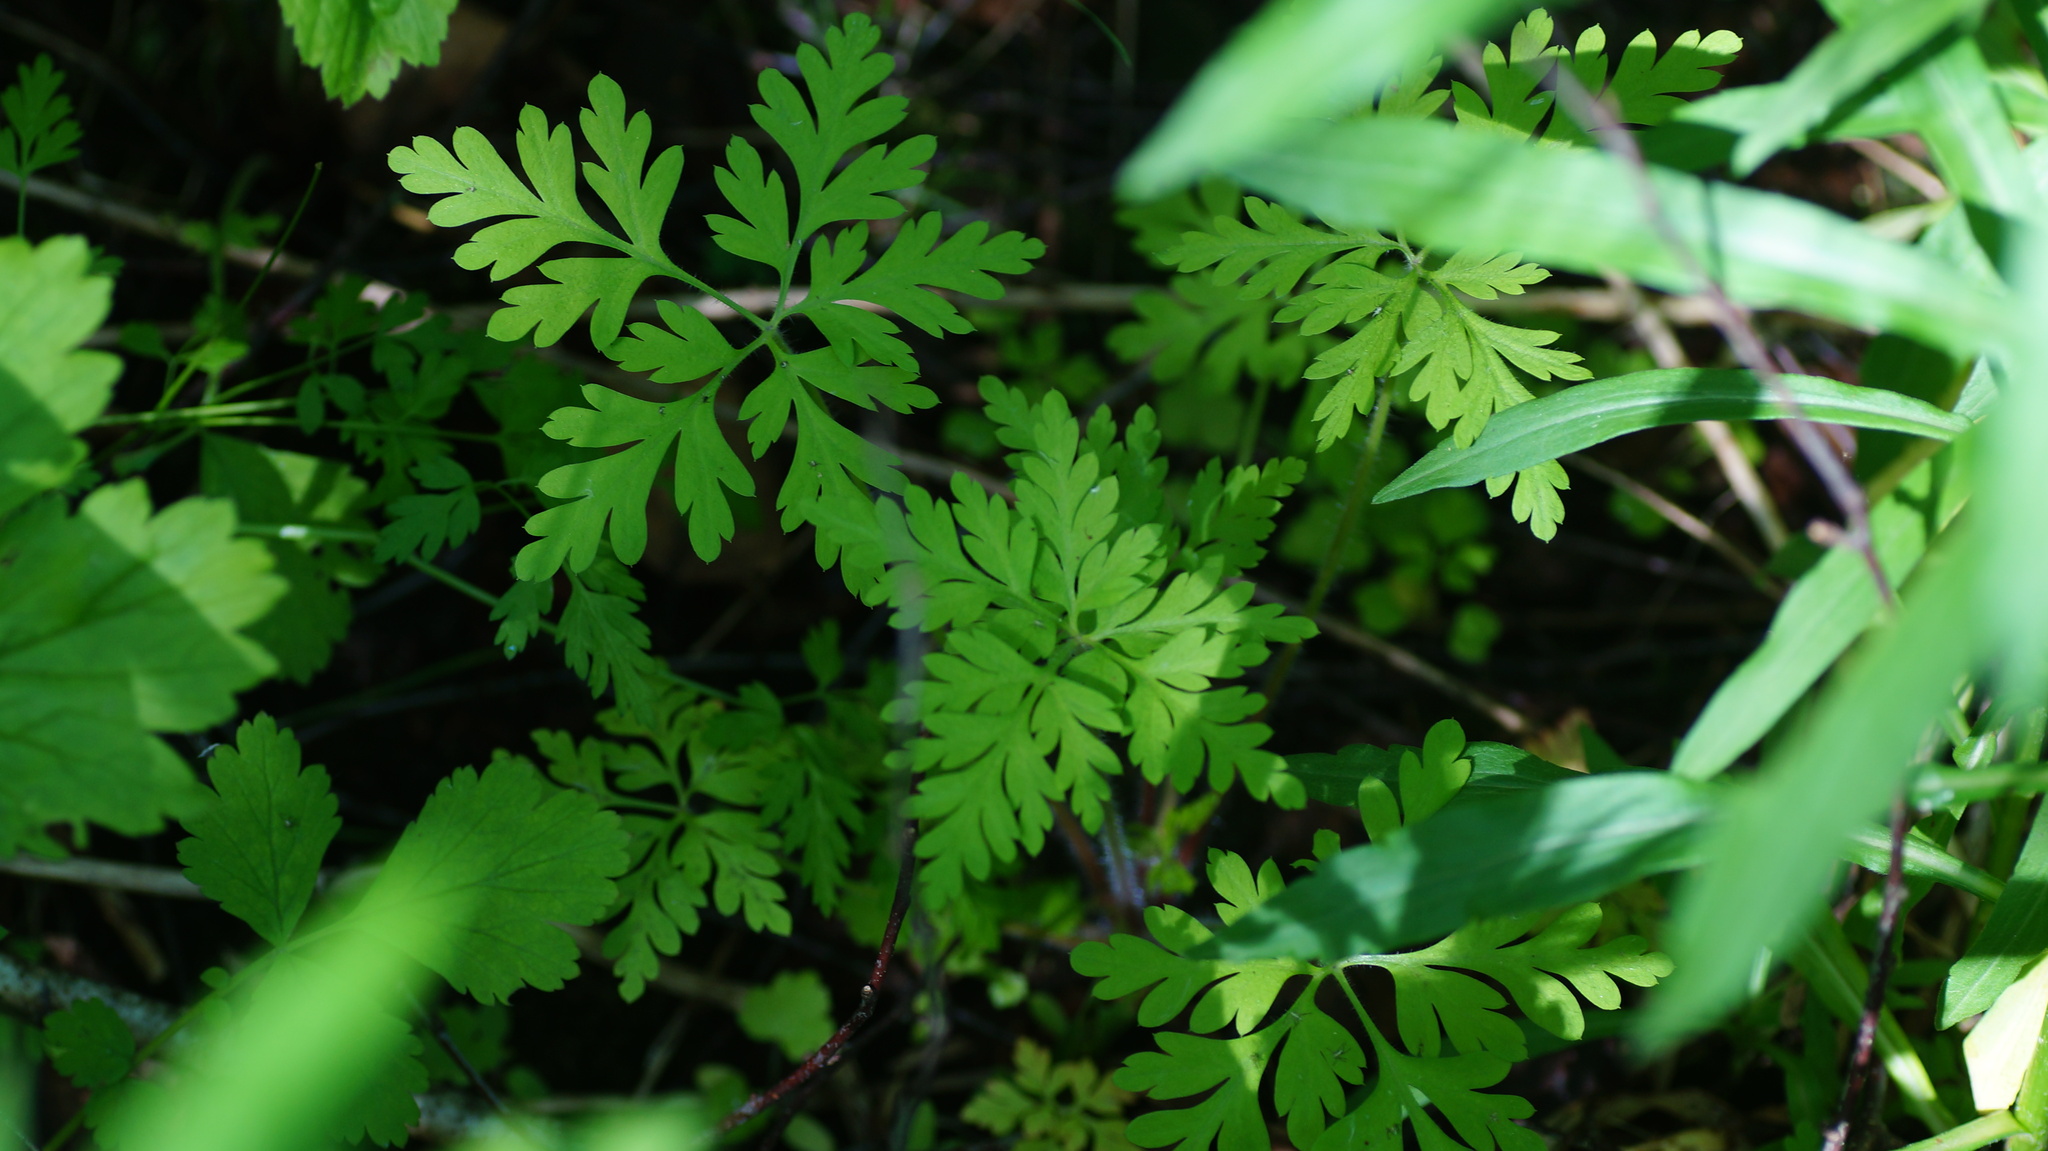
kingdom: Plantae
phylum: Tracheophyta
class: Magnoliopsida
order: Geraniales
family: Geraniaceae
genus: Geranium
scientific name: Geranium robertianum
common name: Herb-robert
